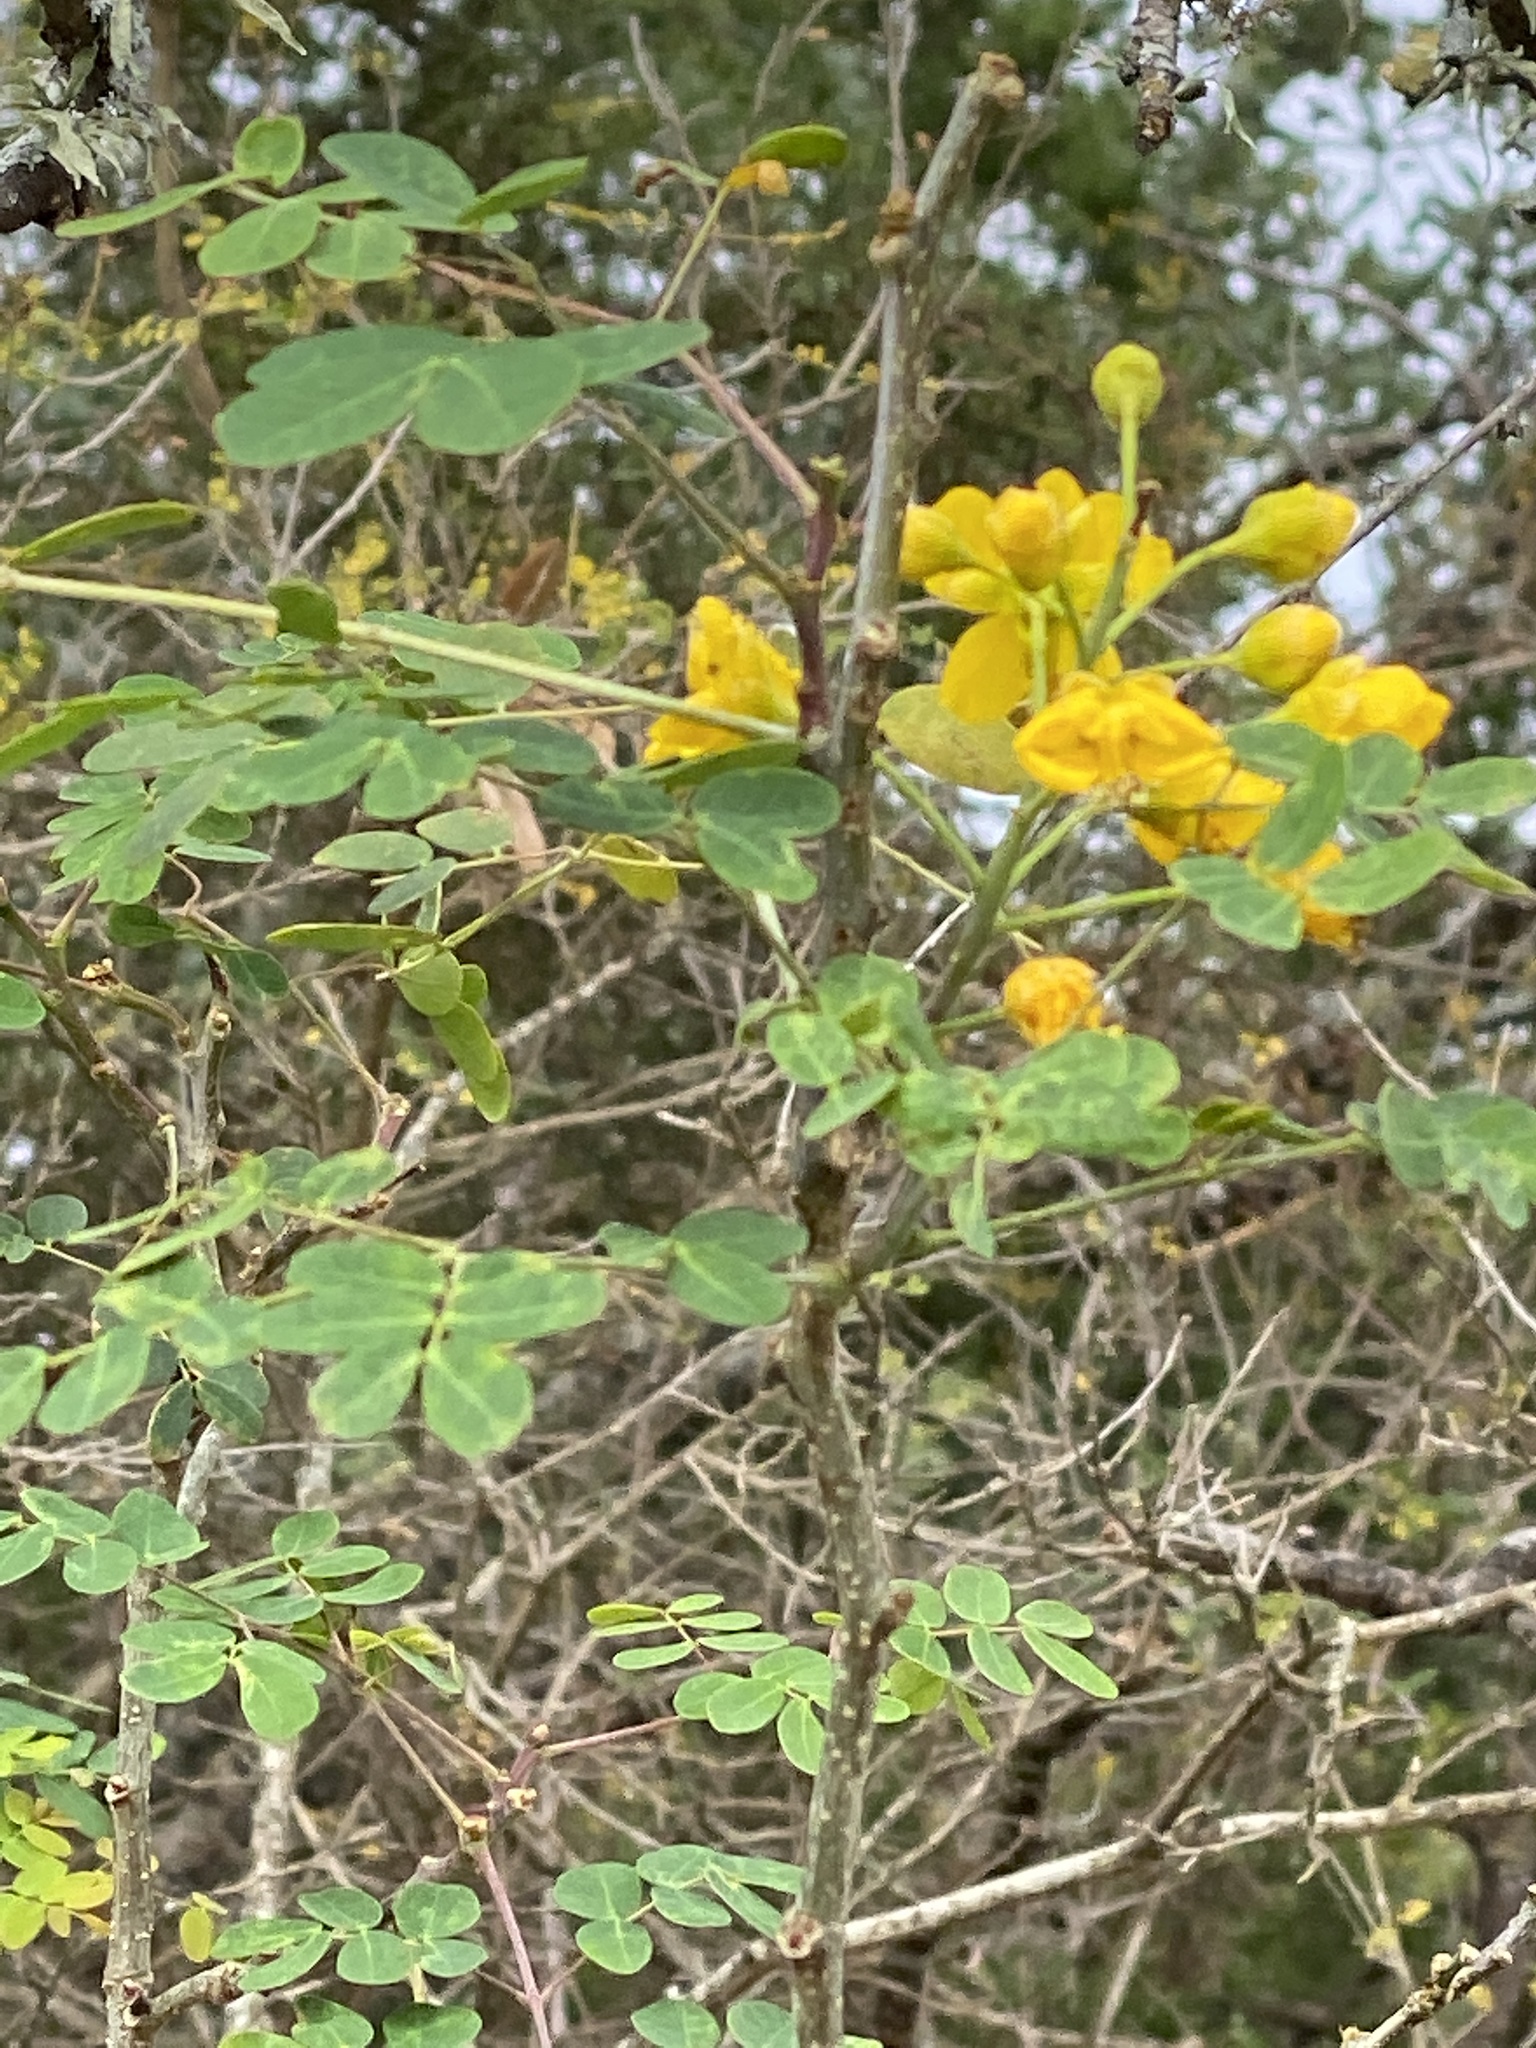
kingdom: Plantae
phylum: Tracheophyta
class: Magnoliopsida
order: Fabales
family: Fabaceae
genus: Erythrostemon
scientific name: Erythrostemon mexicanus
